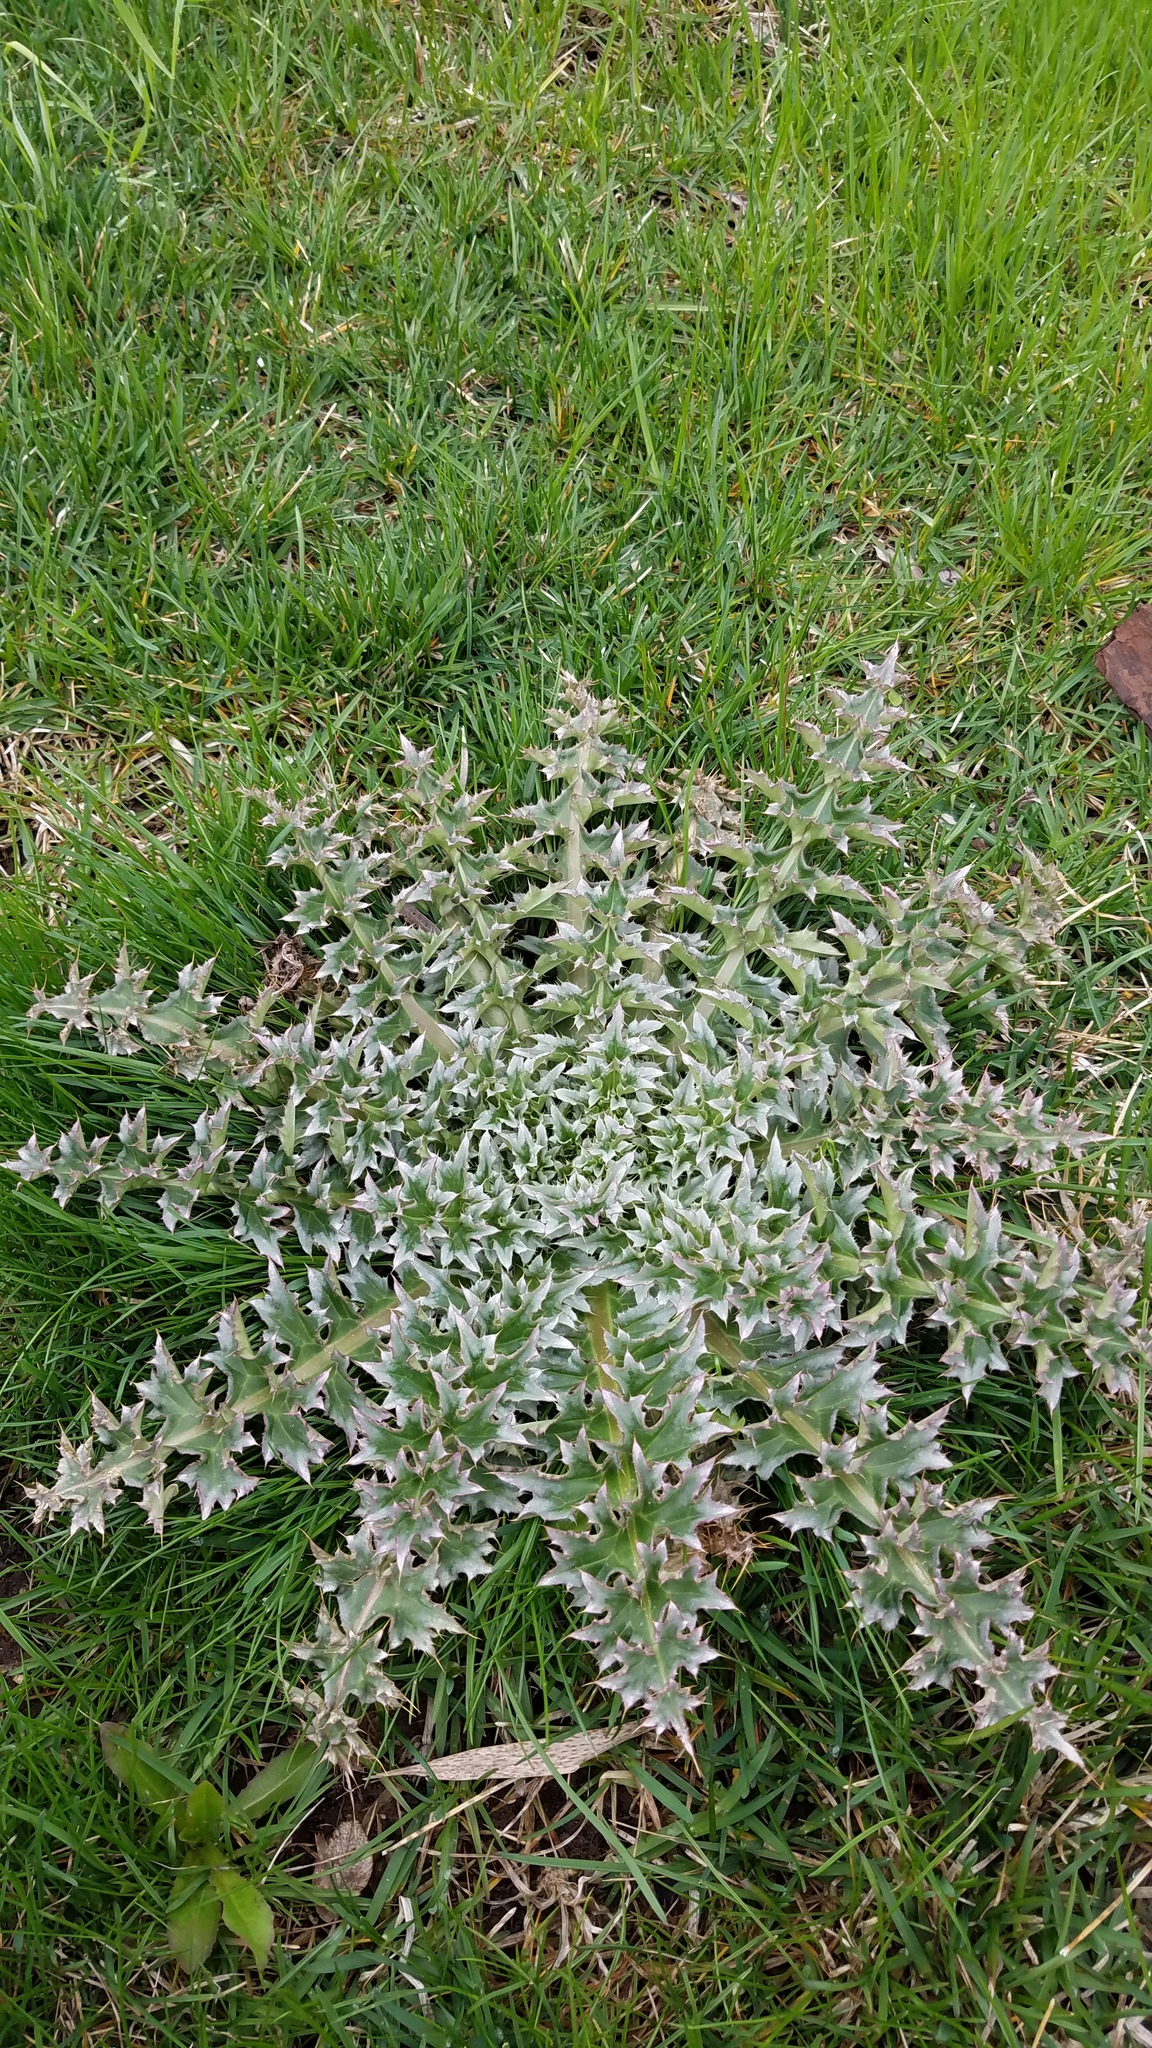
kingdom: Plantae
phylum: Tracheophyta
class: Magnoliopsida
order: Asterales
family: Asteraceae
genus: Carduus
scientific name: Carduus nutans
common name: Musk thistle
